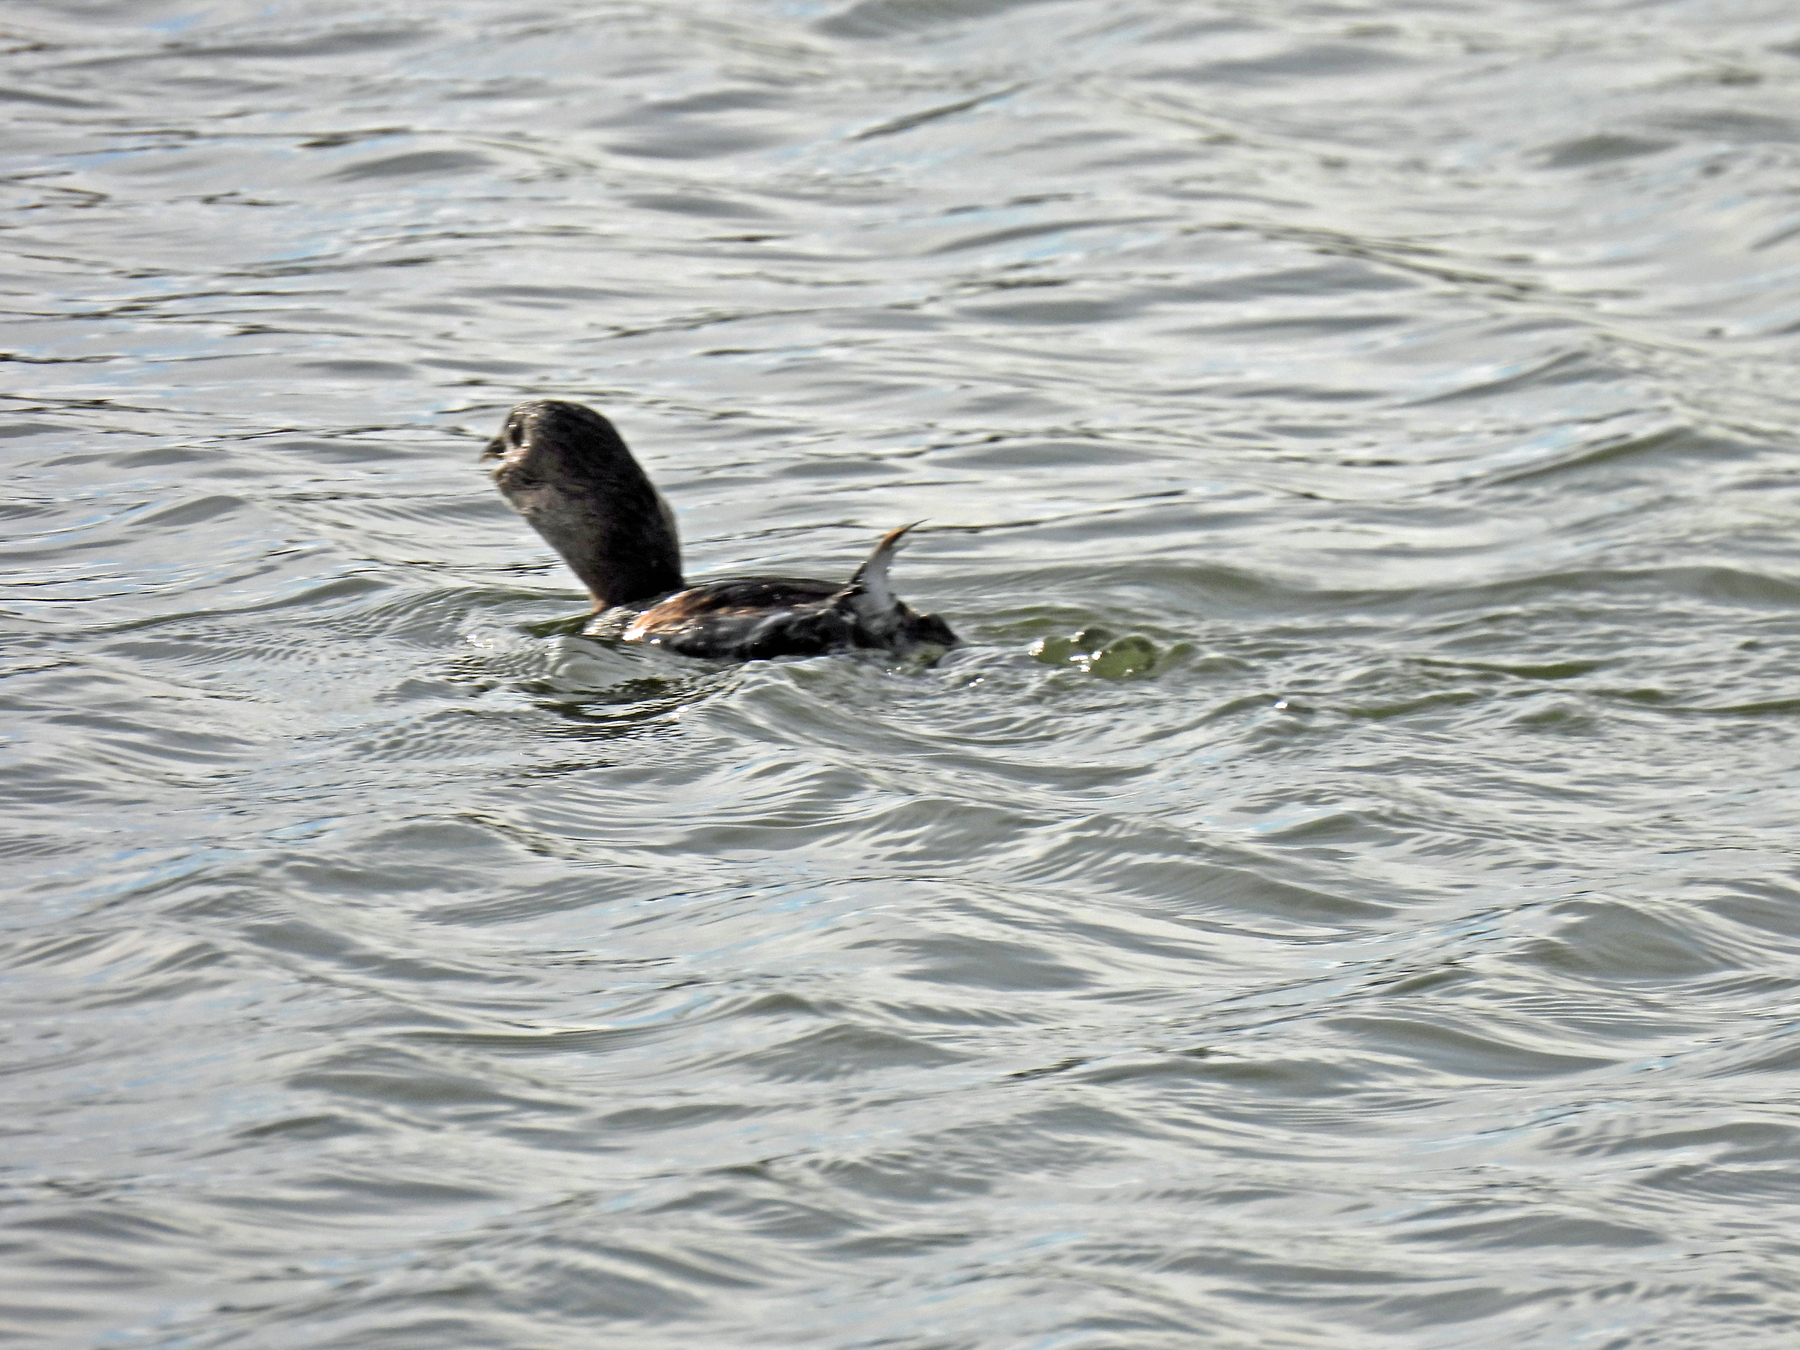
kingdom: Animalia
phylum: Chordata
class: Aves
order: Podicipediformes
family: Podicipedidae
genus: Podilymbus
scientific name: Podilymbus podiceps
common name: Pied-billed grebe
